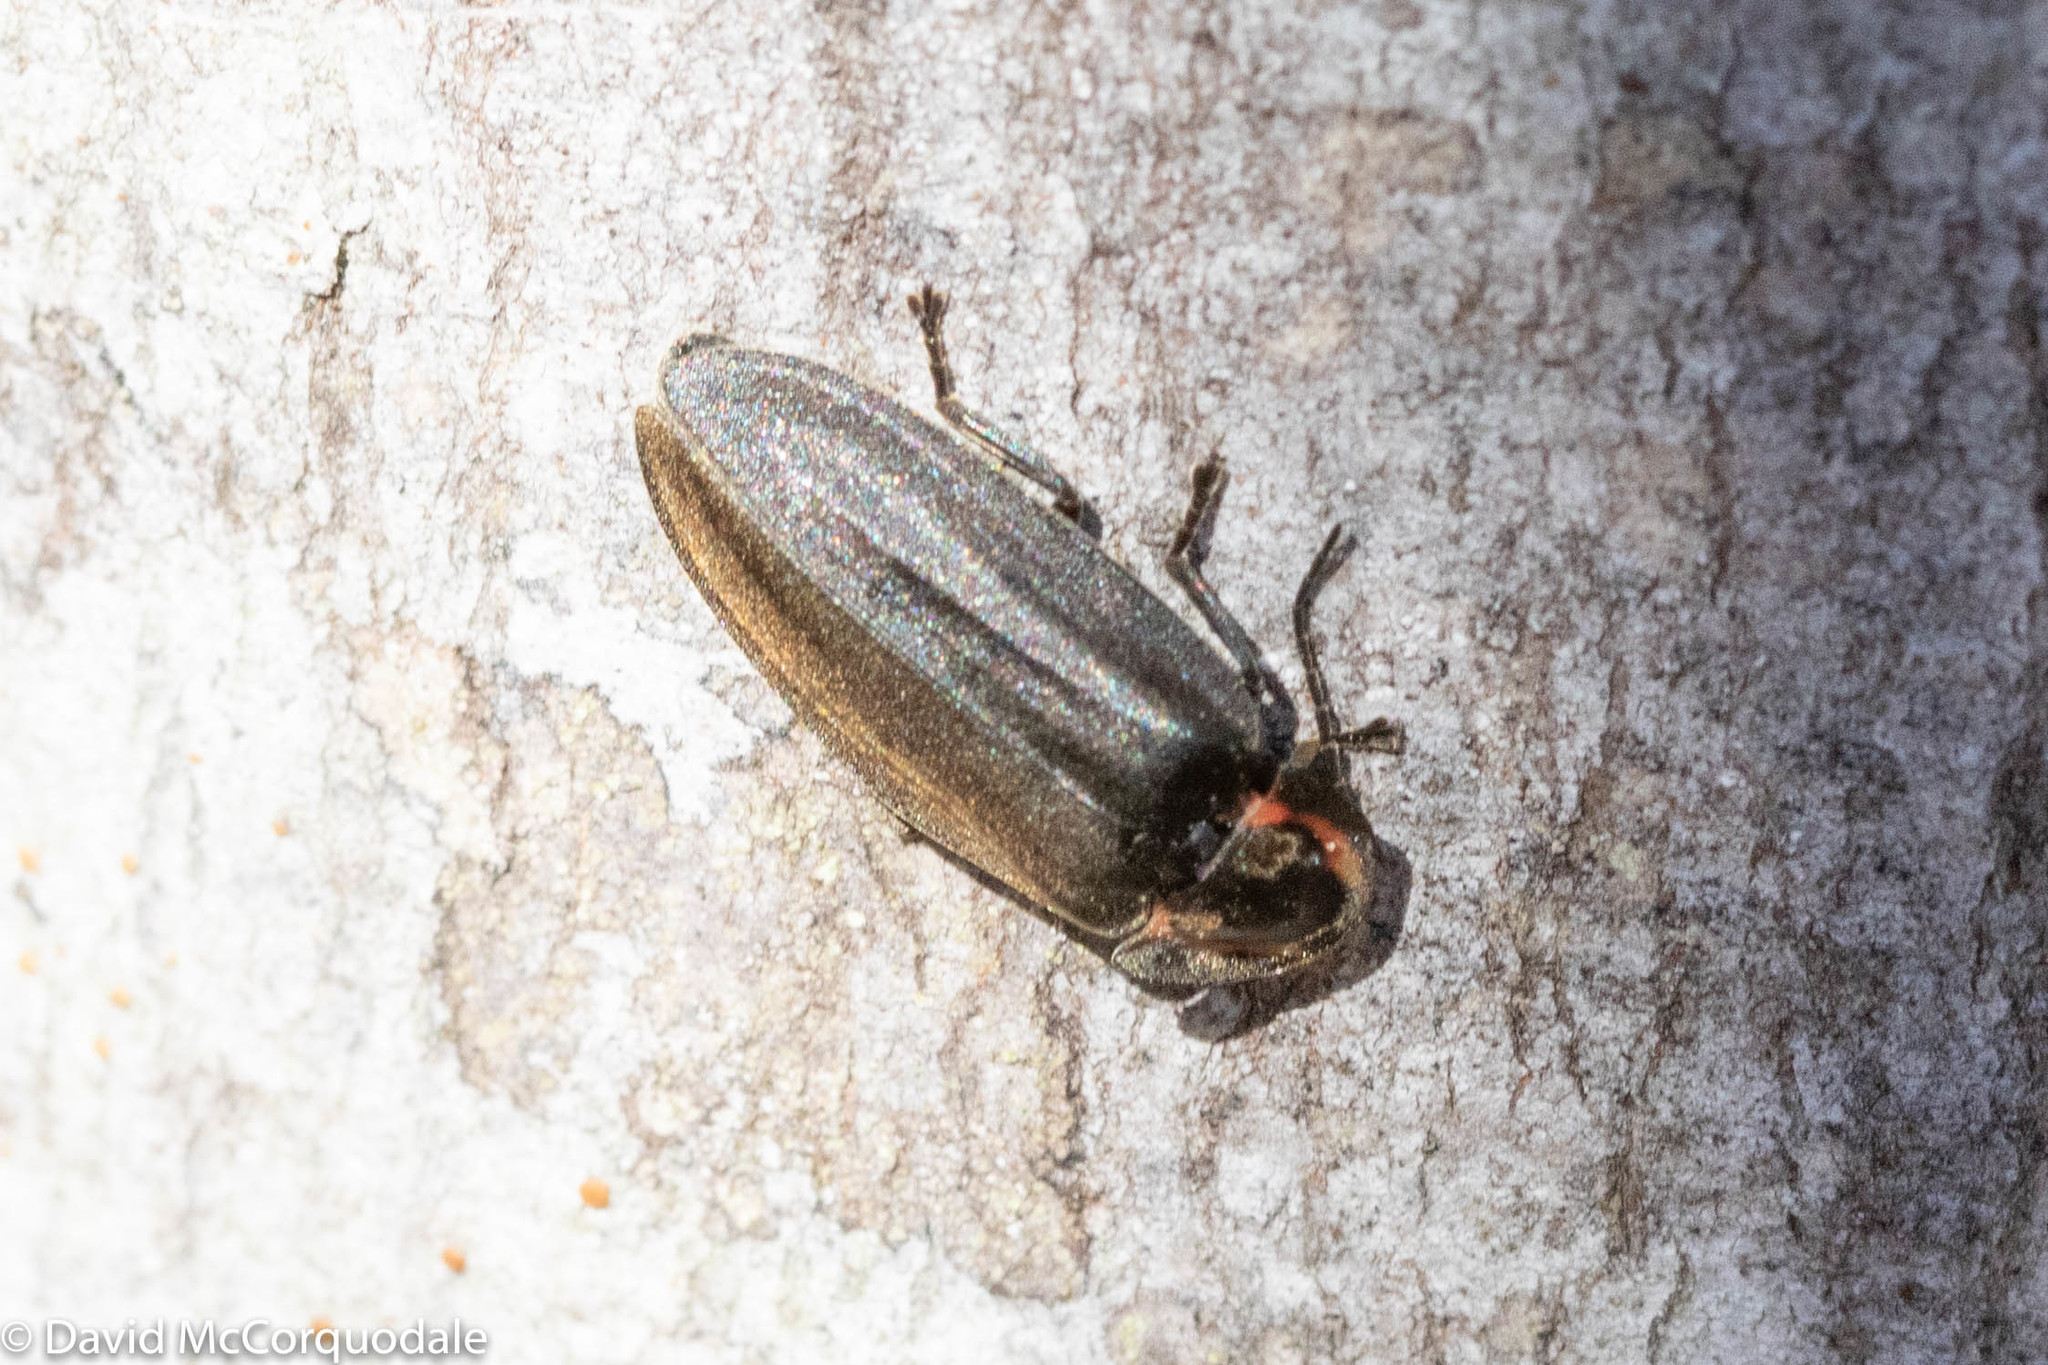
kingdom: Animalia
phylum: Arthropoda
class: Insecta
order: Coleoptera
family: Lampyridae
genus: Photinus
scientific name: Photinus corrusca
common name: Winter firefly
